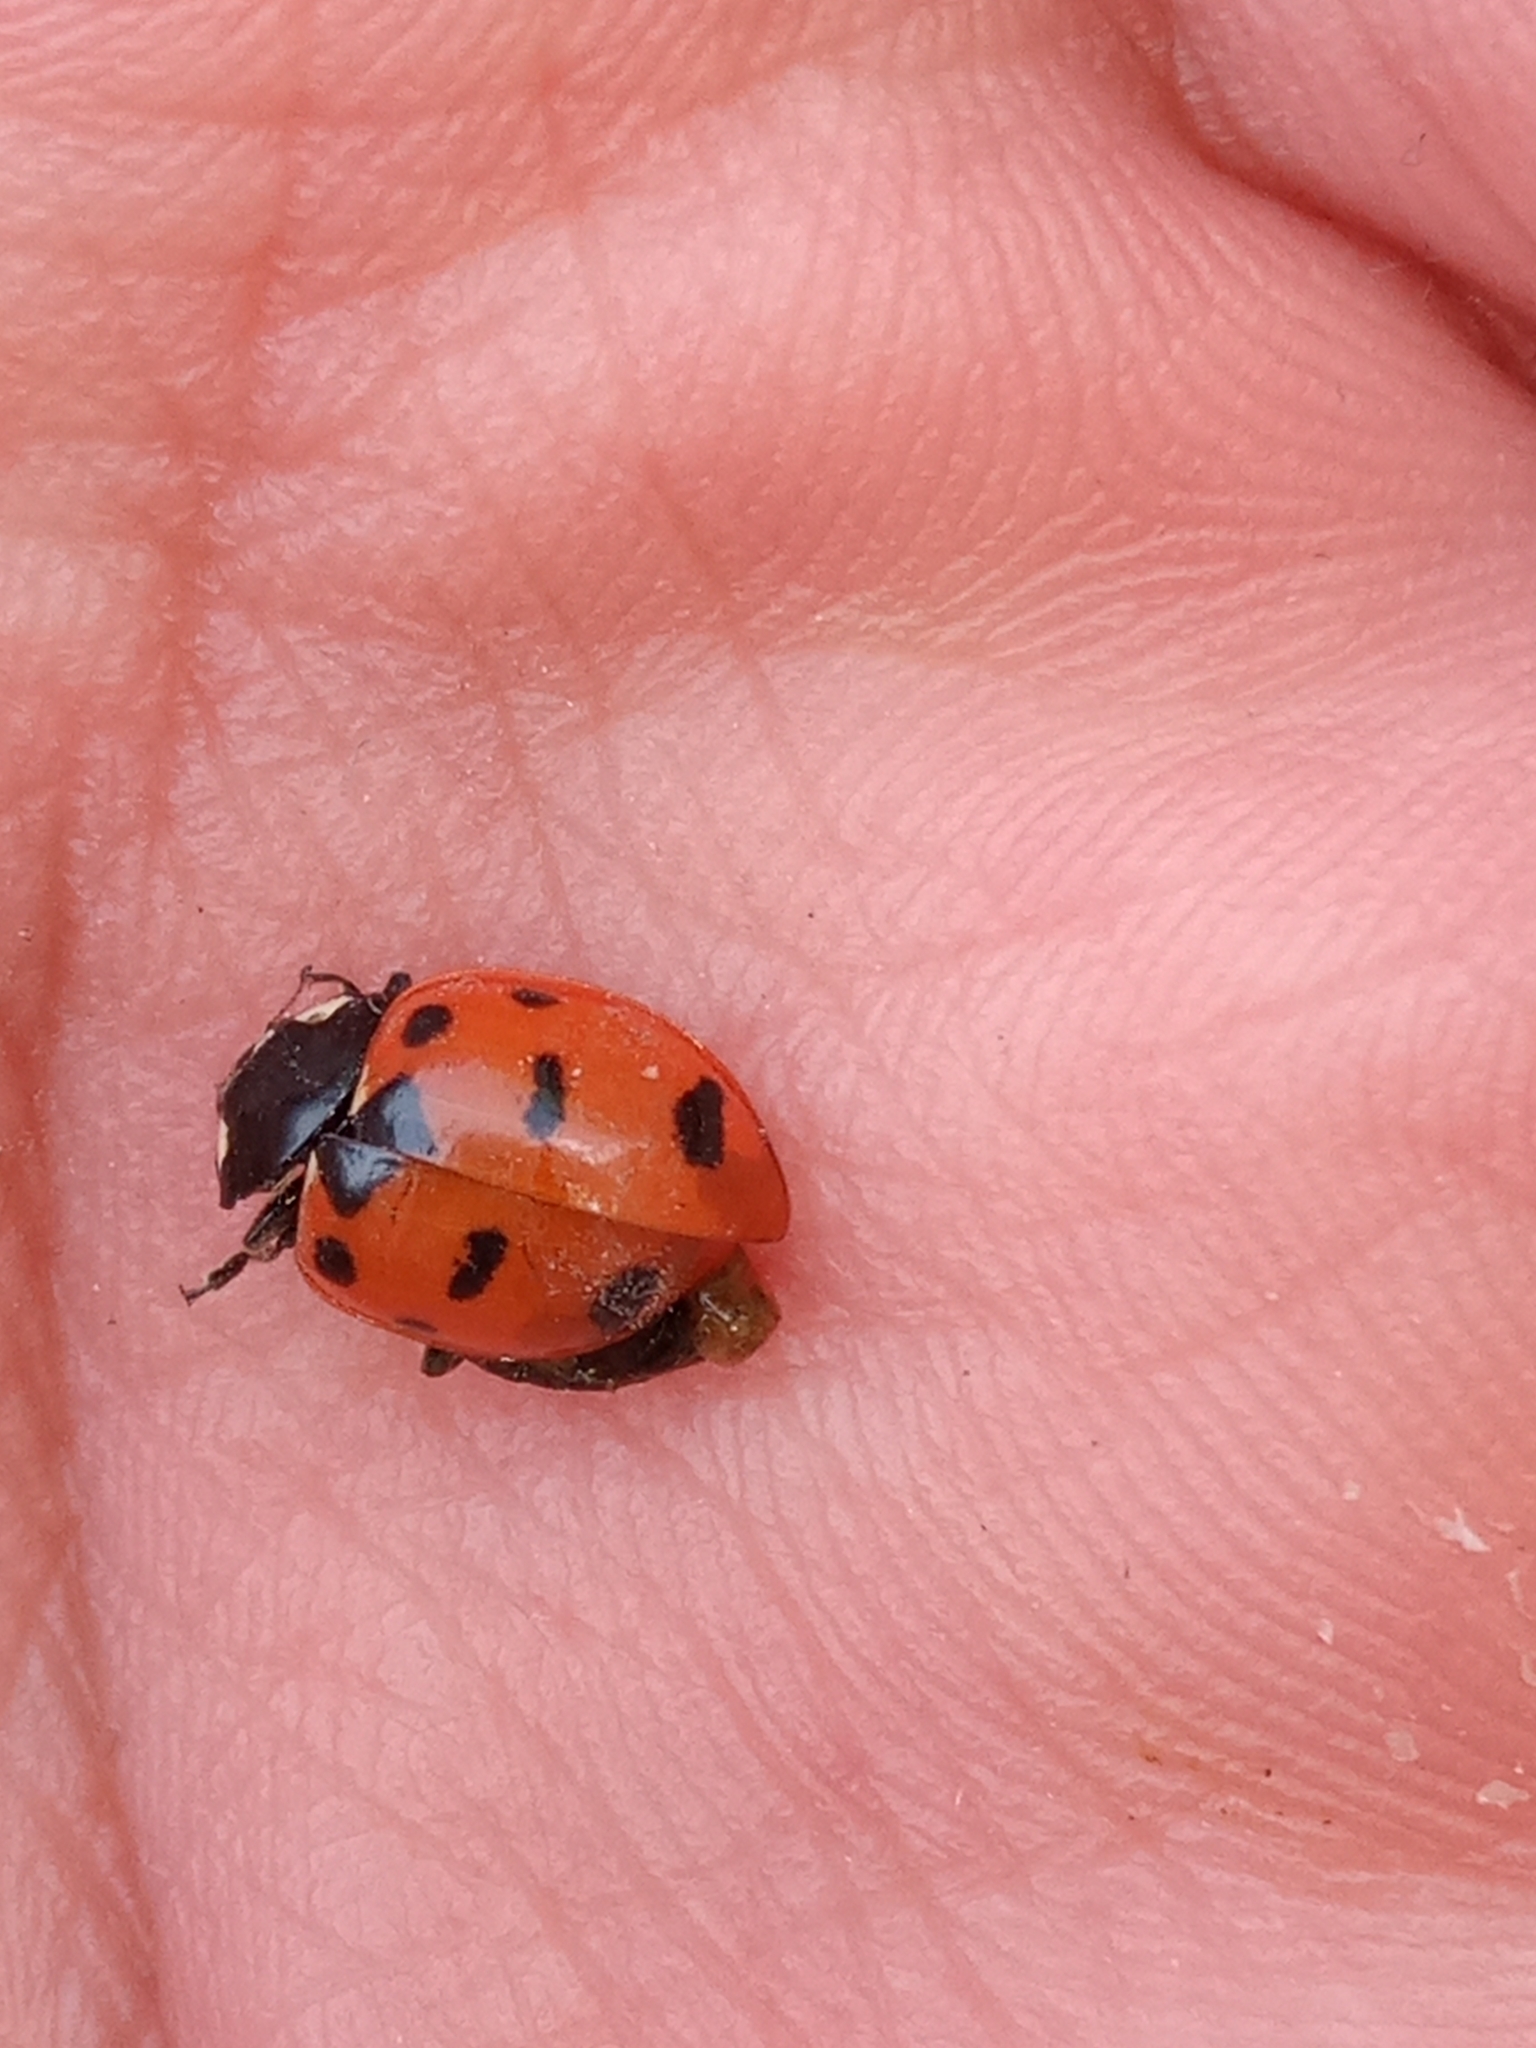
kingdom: Animalia
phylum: Arthropoda
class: Insecta
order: Coleoptera
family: Coccinellidae
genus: Coccinella
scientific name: Coccinella
